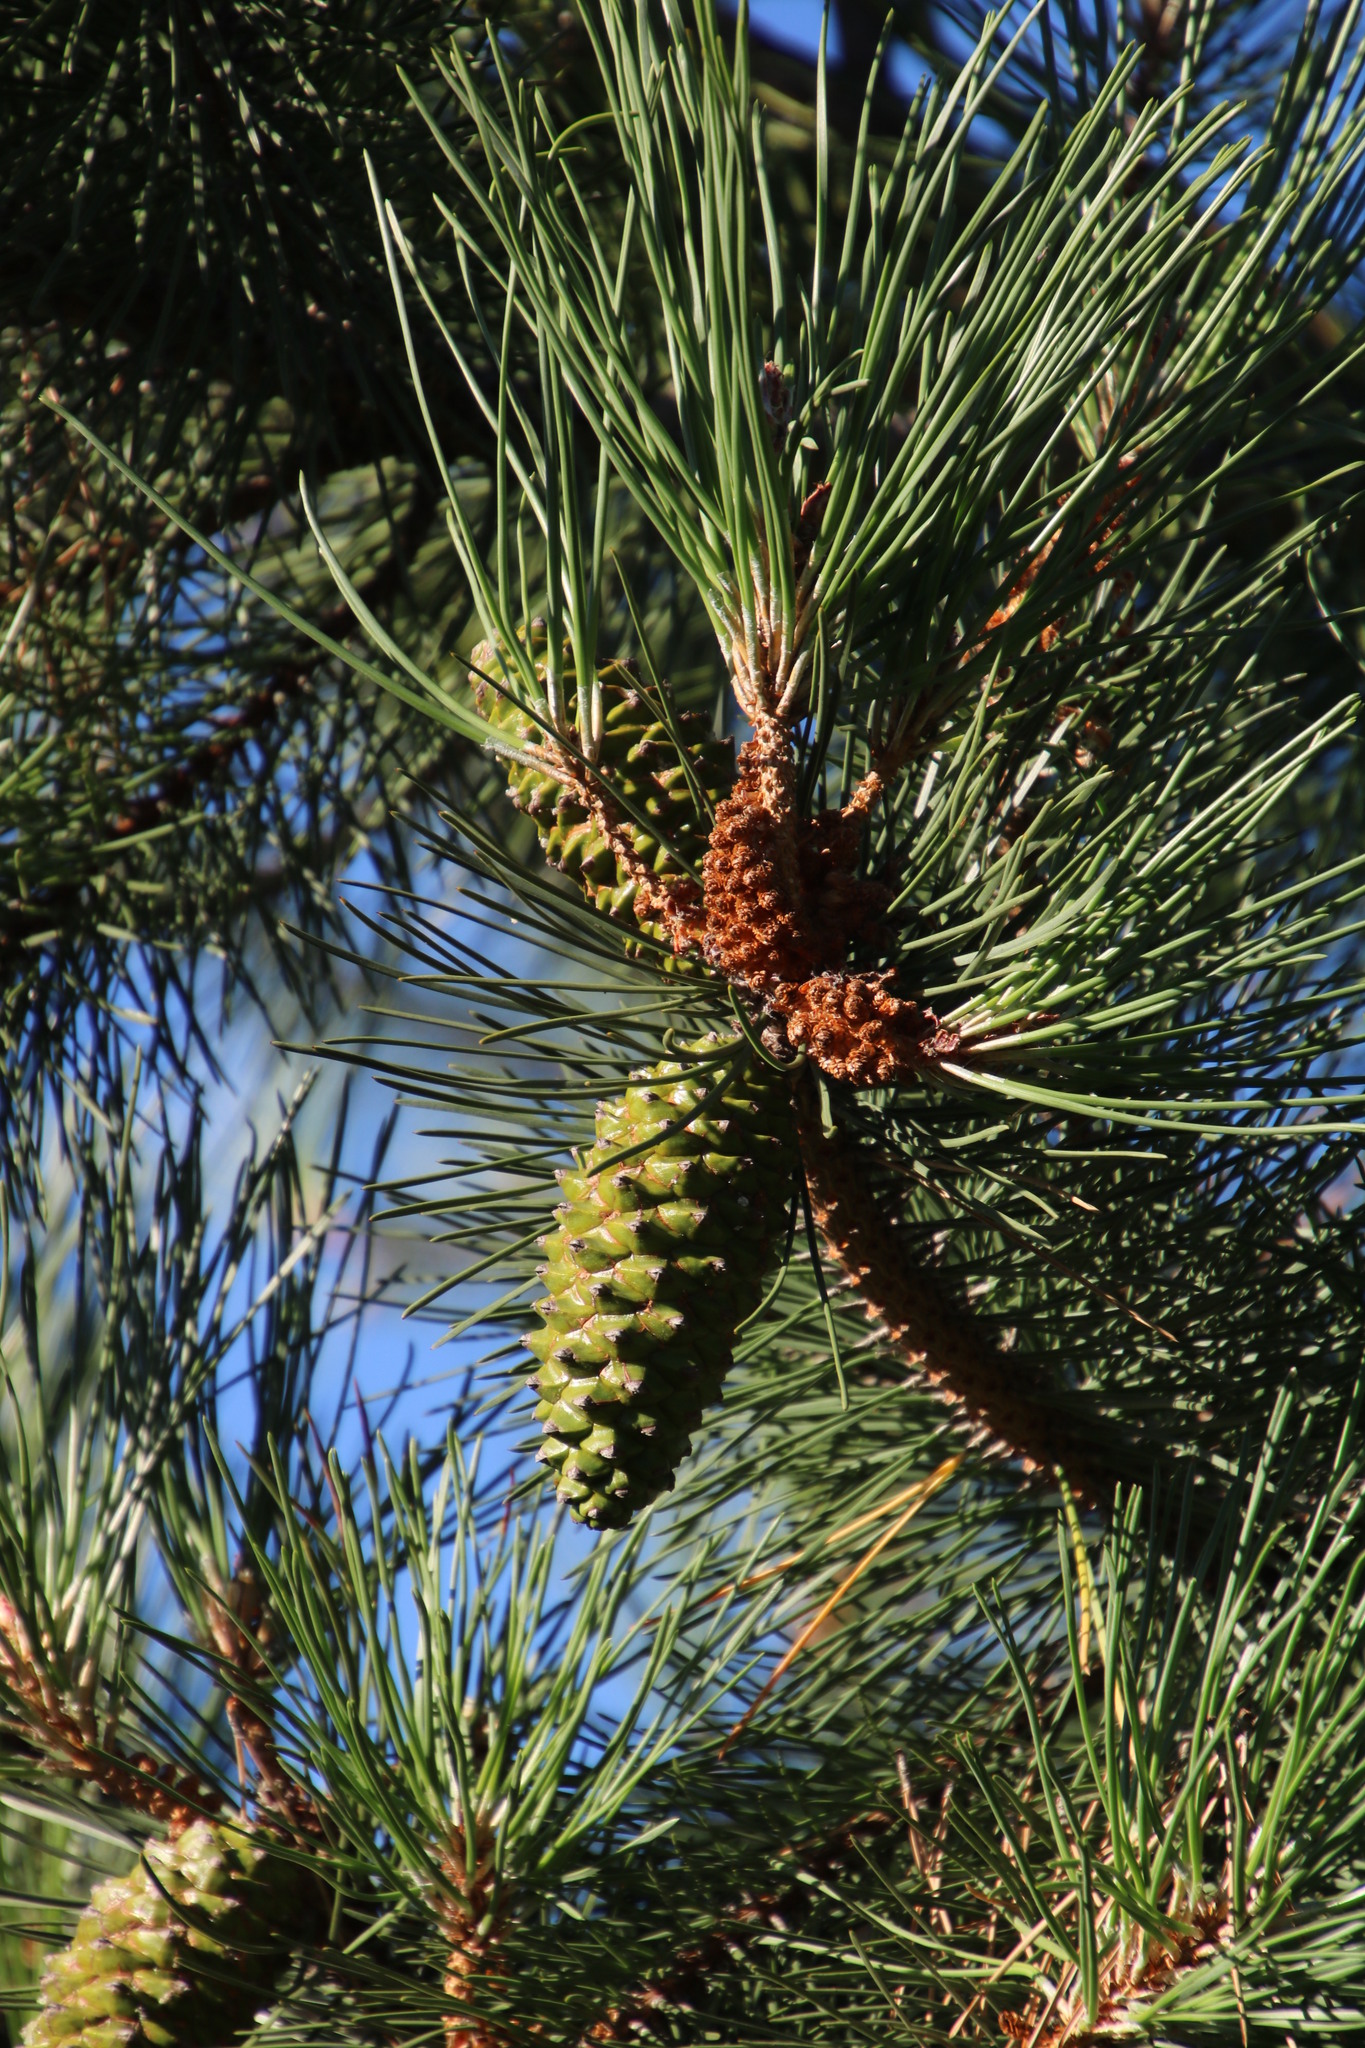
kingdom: Plantae
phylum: Tracheophyta
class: Pinopsida
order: Pinales
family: Pinaceae
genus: Pinus
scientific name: Pinus pinaster
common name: Maritime pine
